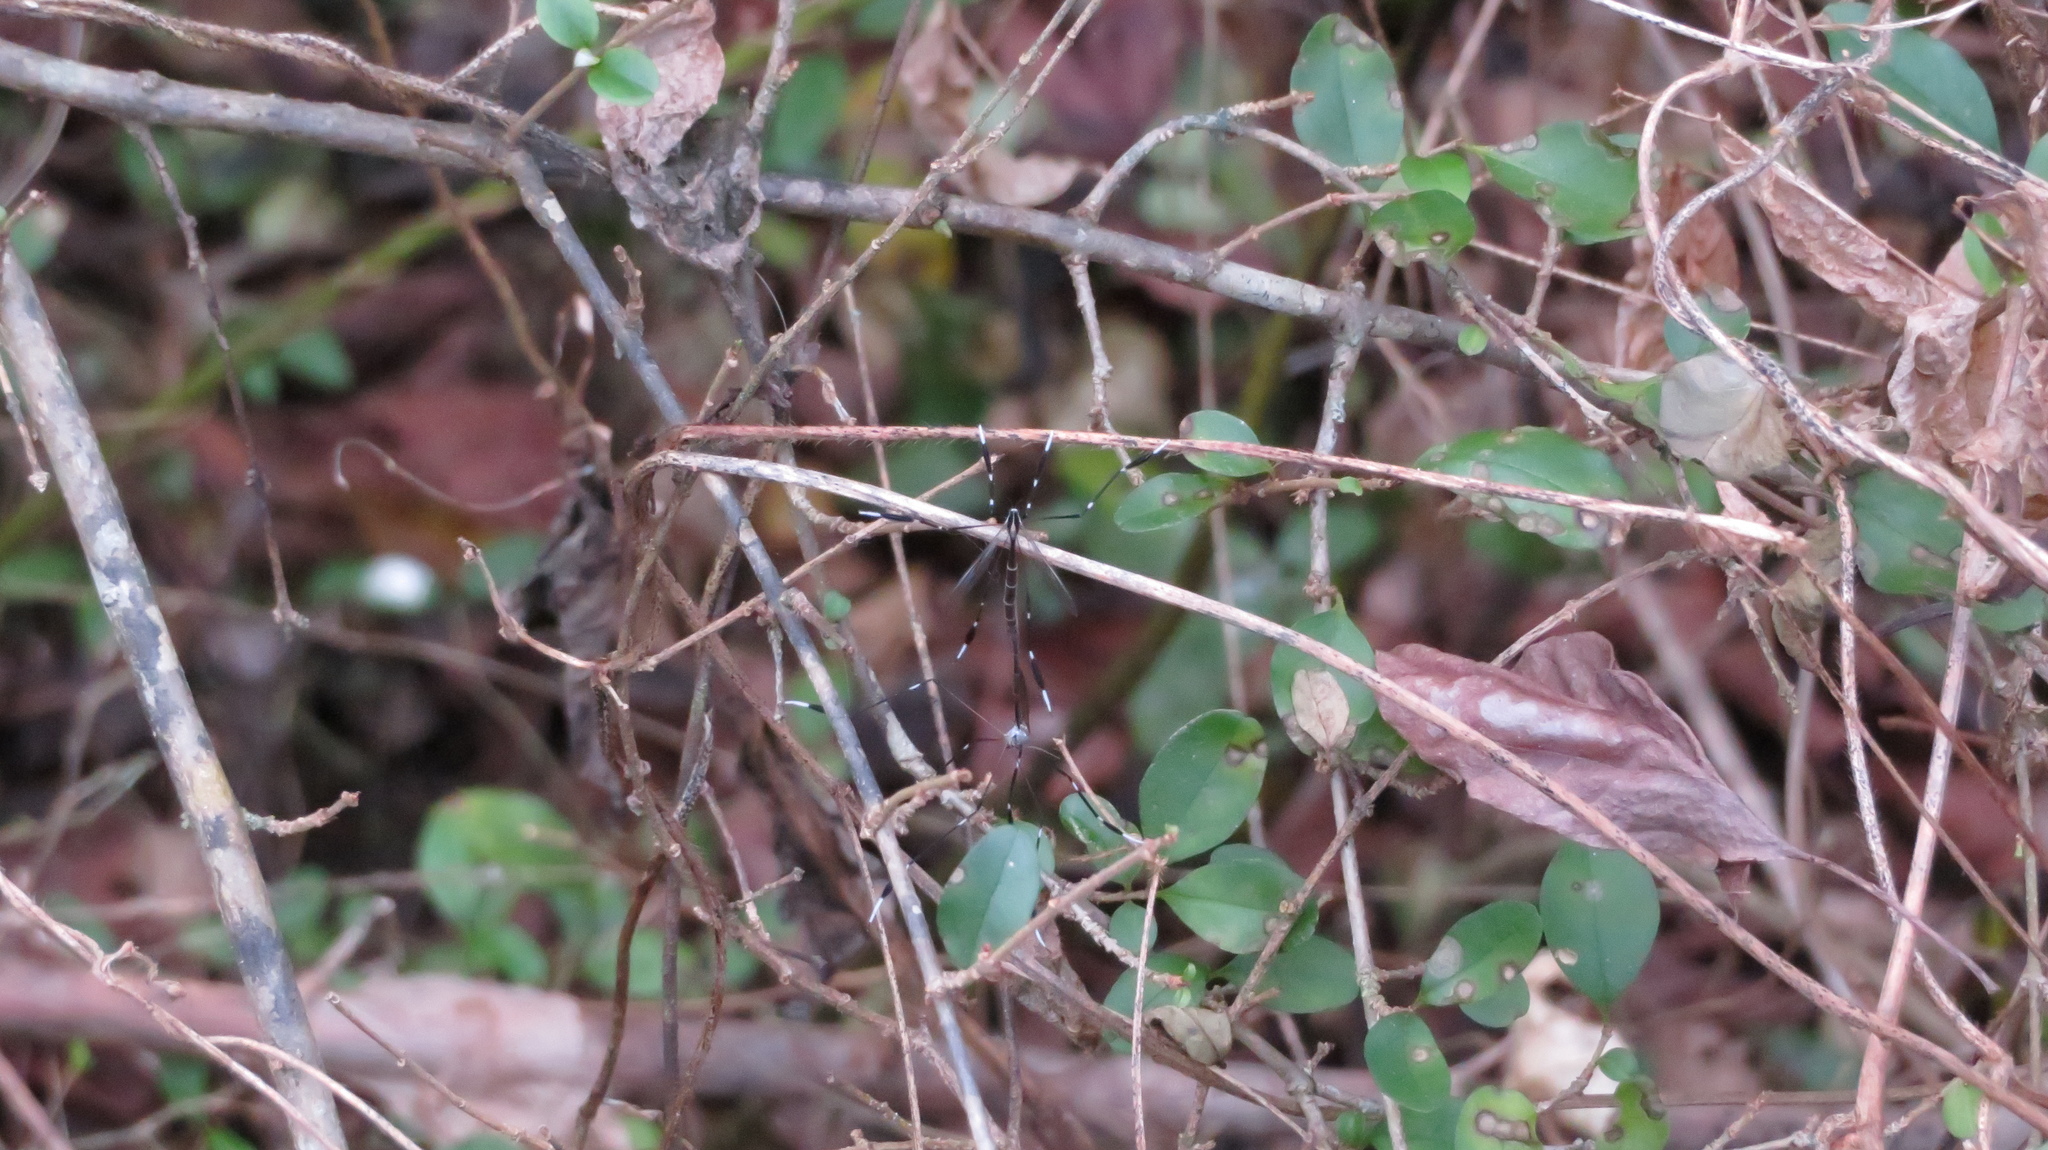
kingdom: Animalia
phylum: Arthropoda
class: Insecta
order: Diptera
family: Ptychopteridae
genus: Bittacomorpha
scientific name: Bittacomorpha clavipes
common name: Eastern phantom crane fly
